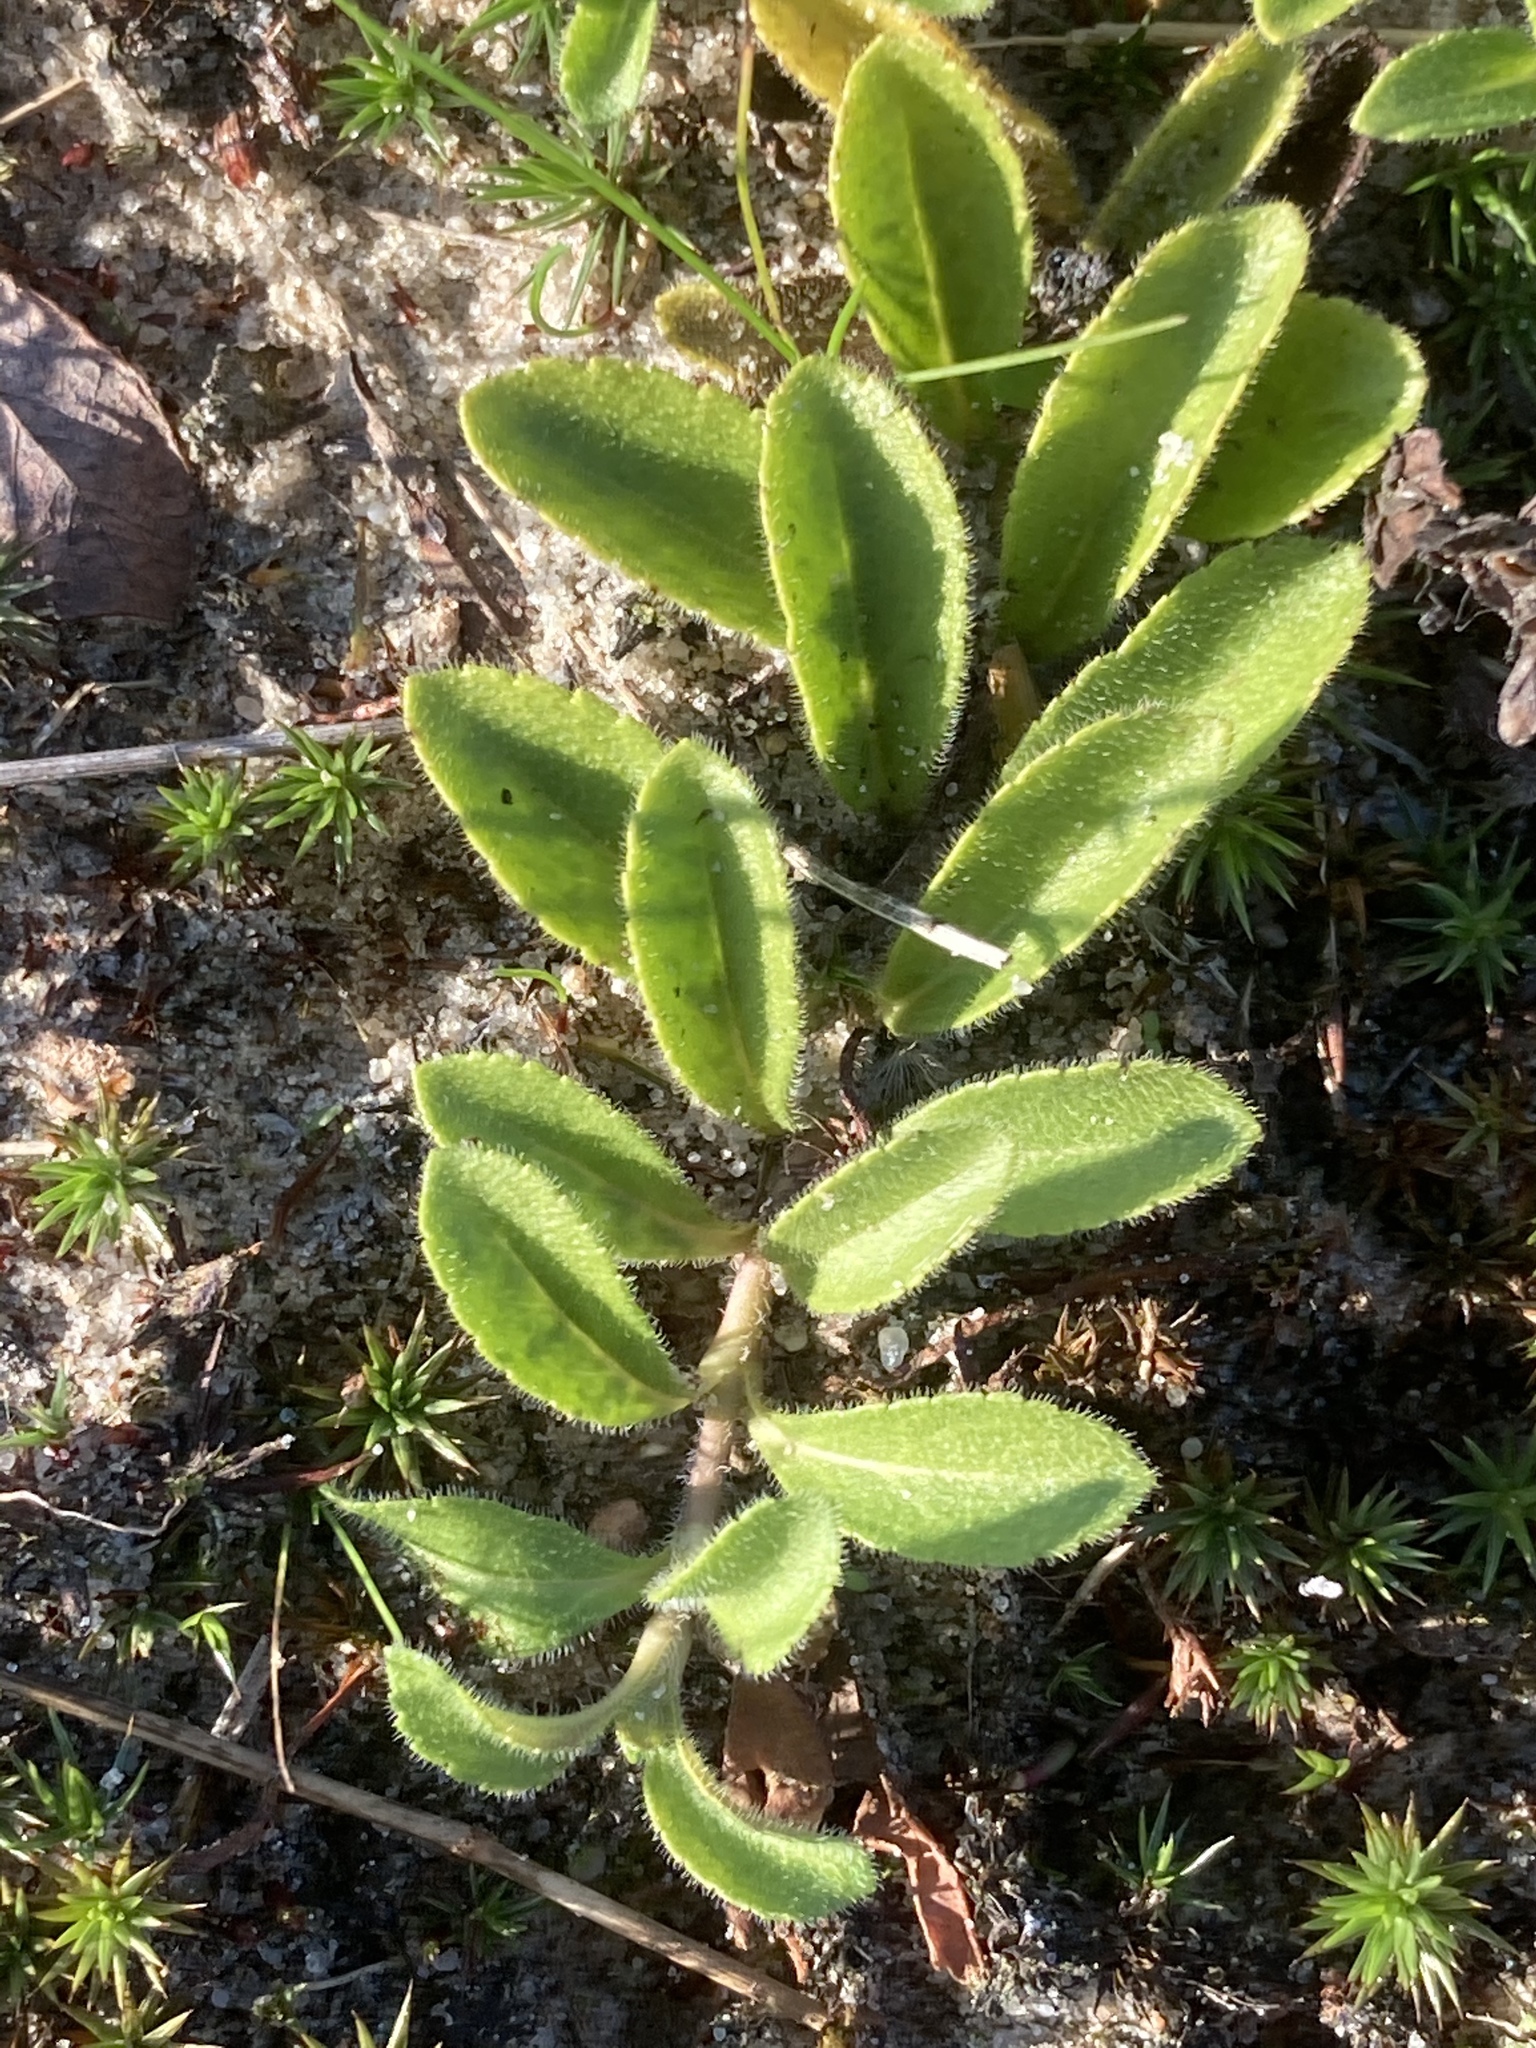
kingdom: Plantae
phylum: Tracheophyta
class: Magnoliopsida
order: Lamiales
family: Plantaginaceae
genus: Veronica
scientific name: Veronica officinalis
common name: Common speedwell
